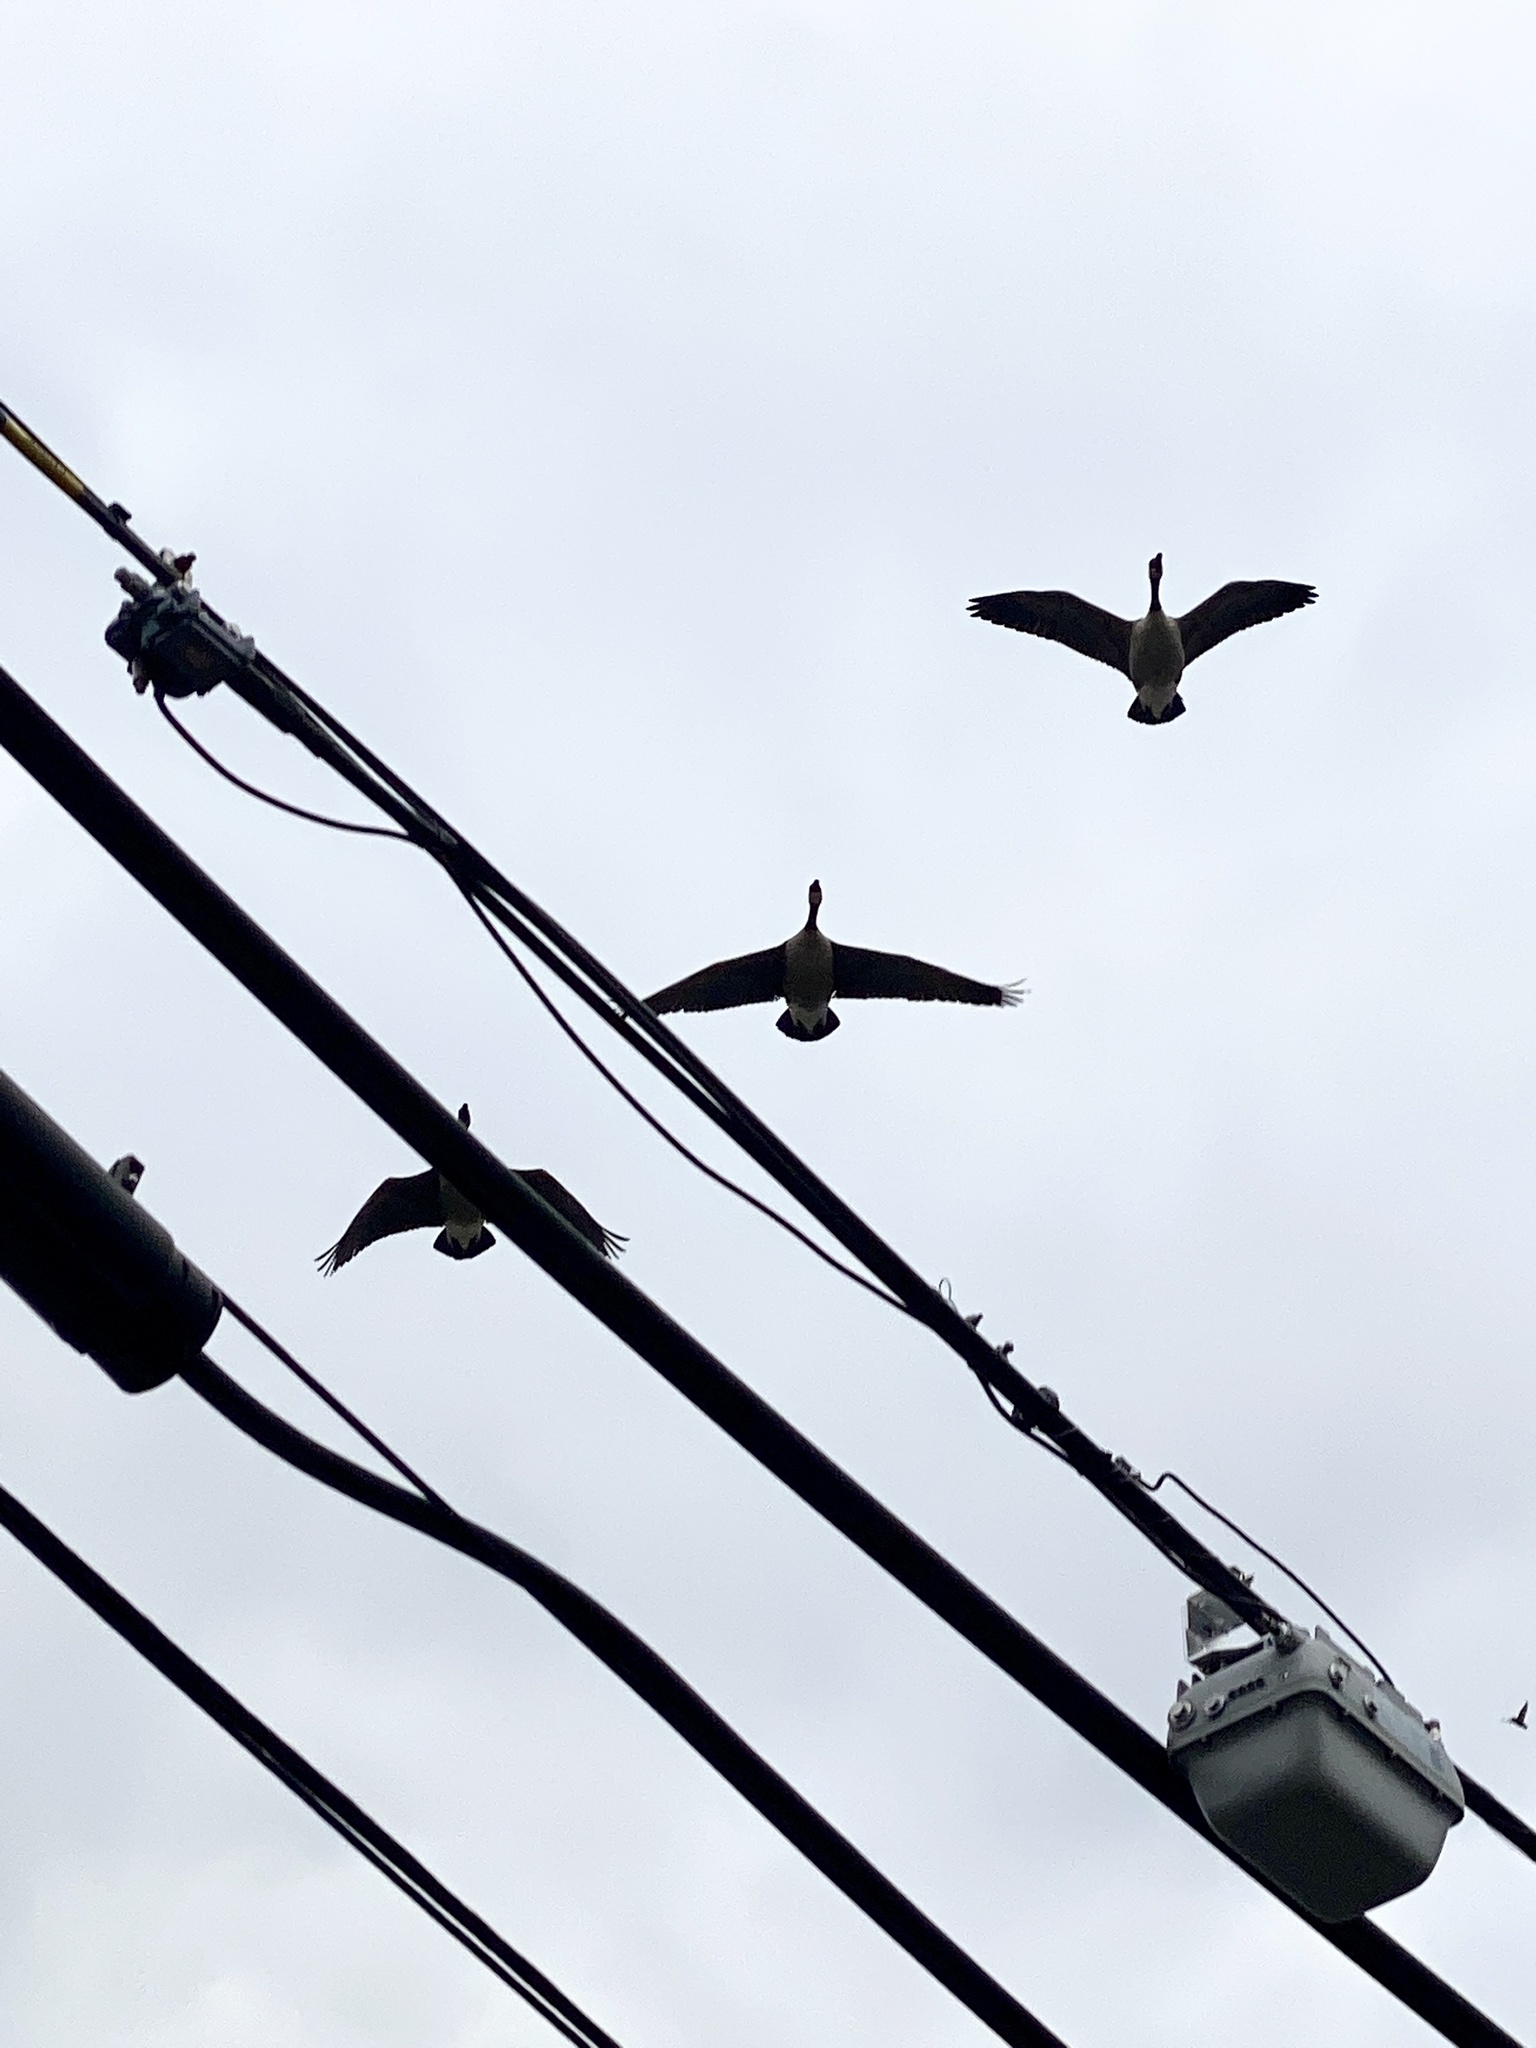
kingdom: Animalia
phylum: Chordata
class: Aves
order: Anseriformes
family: Anatidae
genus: Branta
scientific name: Branta canadensis
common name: Canada goose
